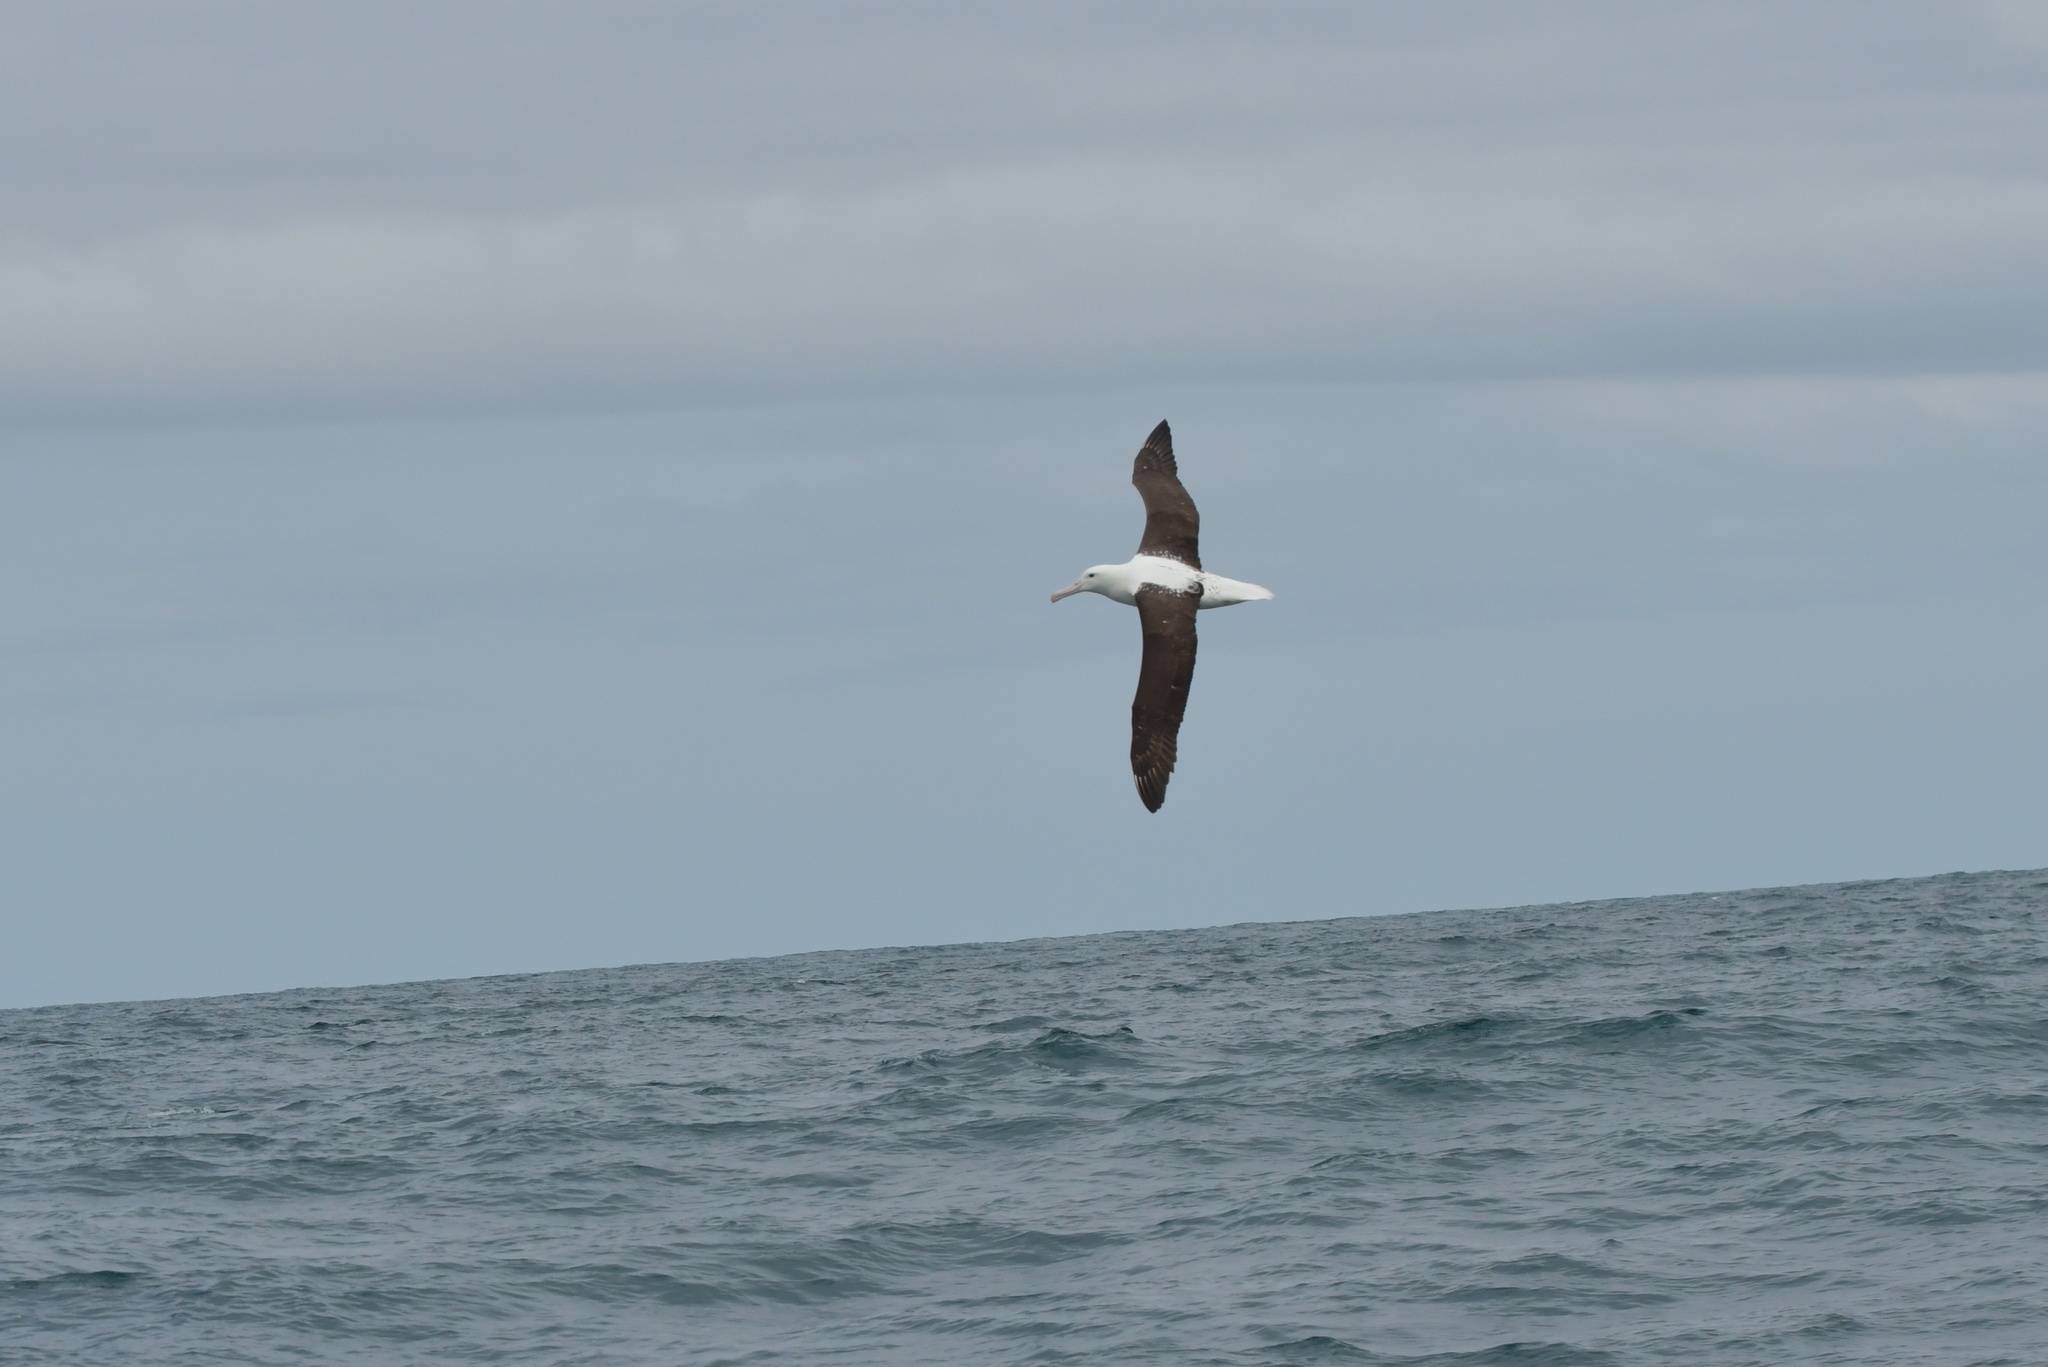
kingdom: Animalia
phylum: Chordata
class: Aves
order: Procellariiformes
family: Diomedeidae
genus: Diomedea
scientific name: Diomedea sanfordi
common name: Northern royal albatross
